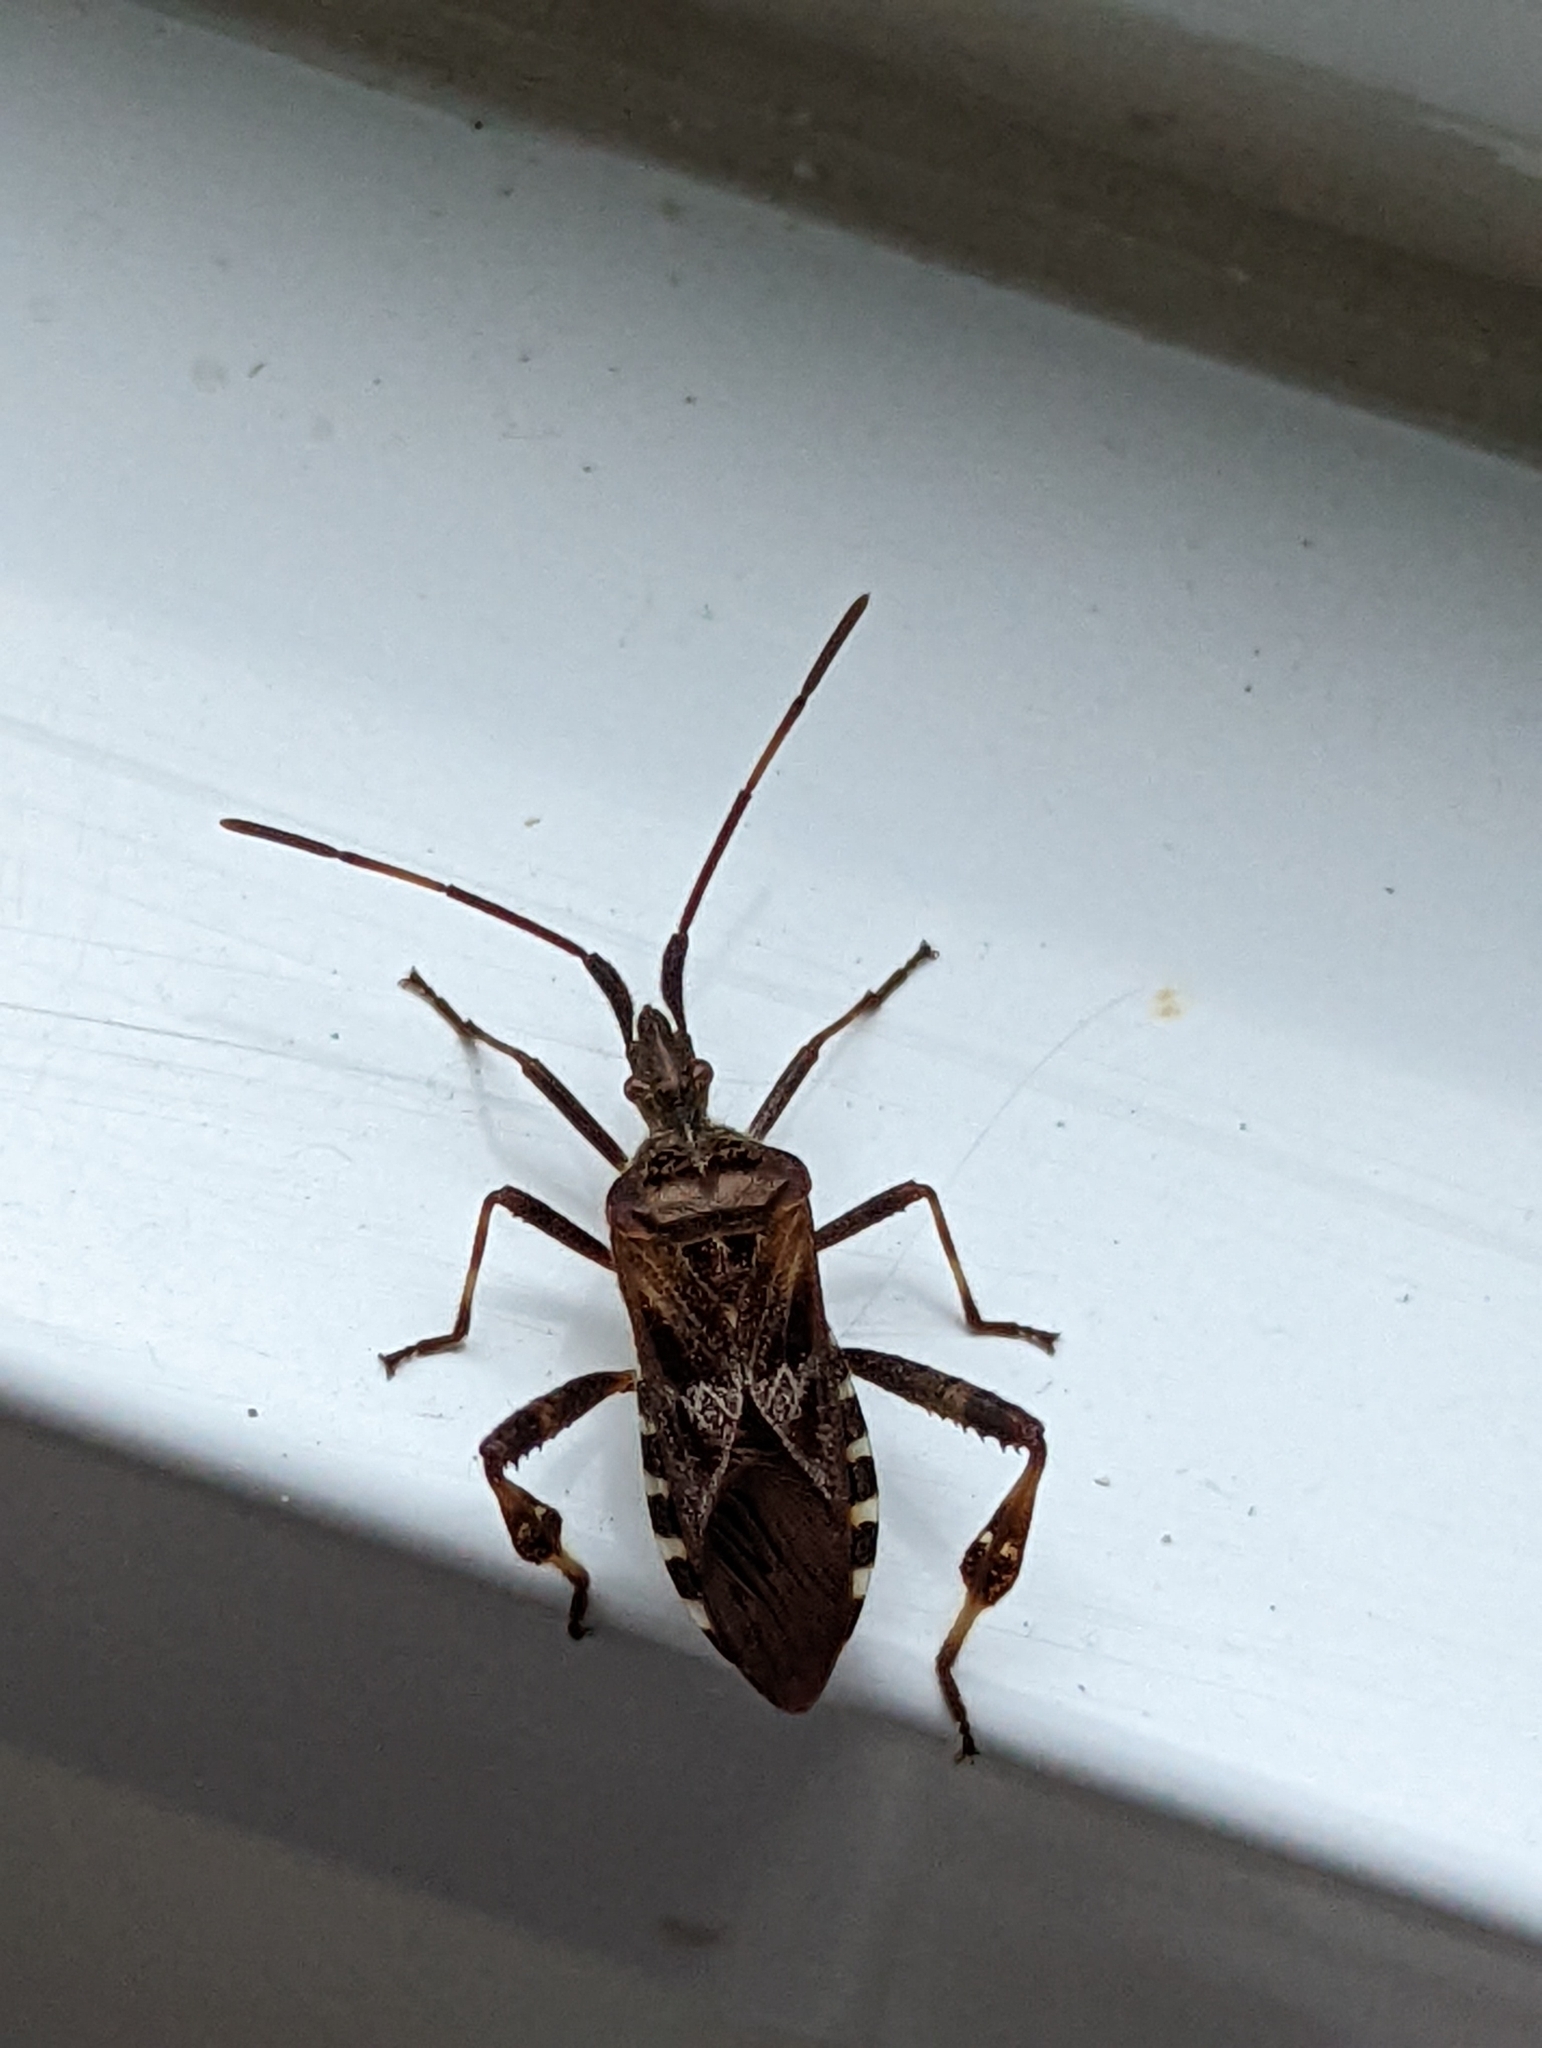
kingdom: Animalia
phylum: Arthropoda
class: Insecta
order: Hemiptera
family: Coreidae
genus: Leptoglossus
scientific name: Leptoglossus occidentalis
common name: Western conifer-seed bug
